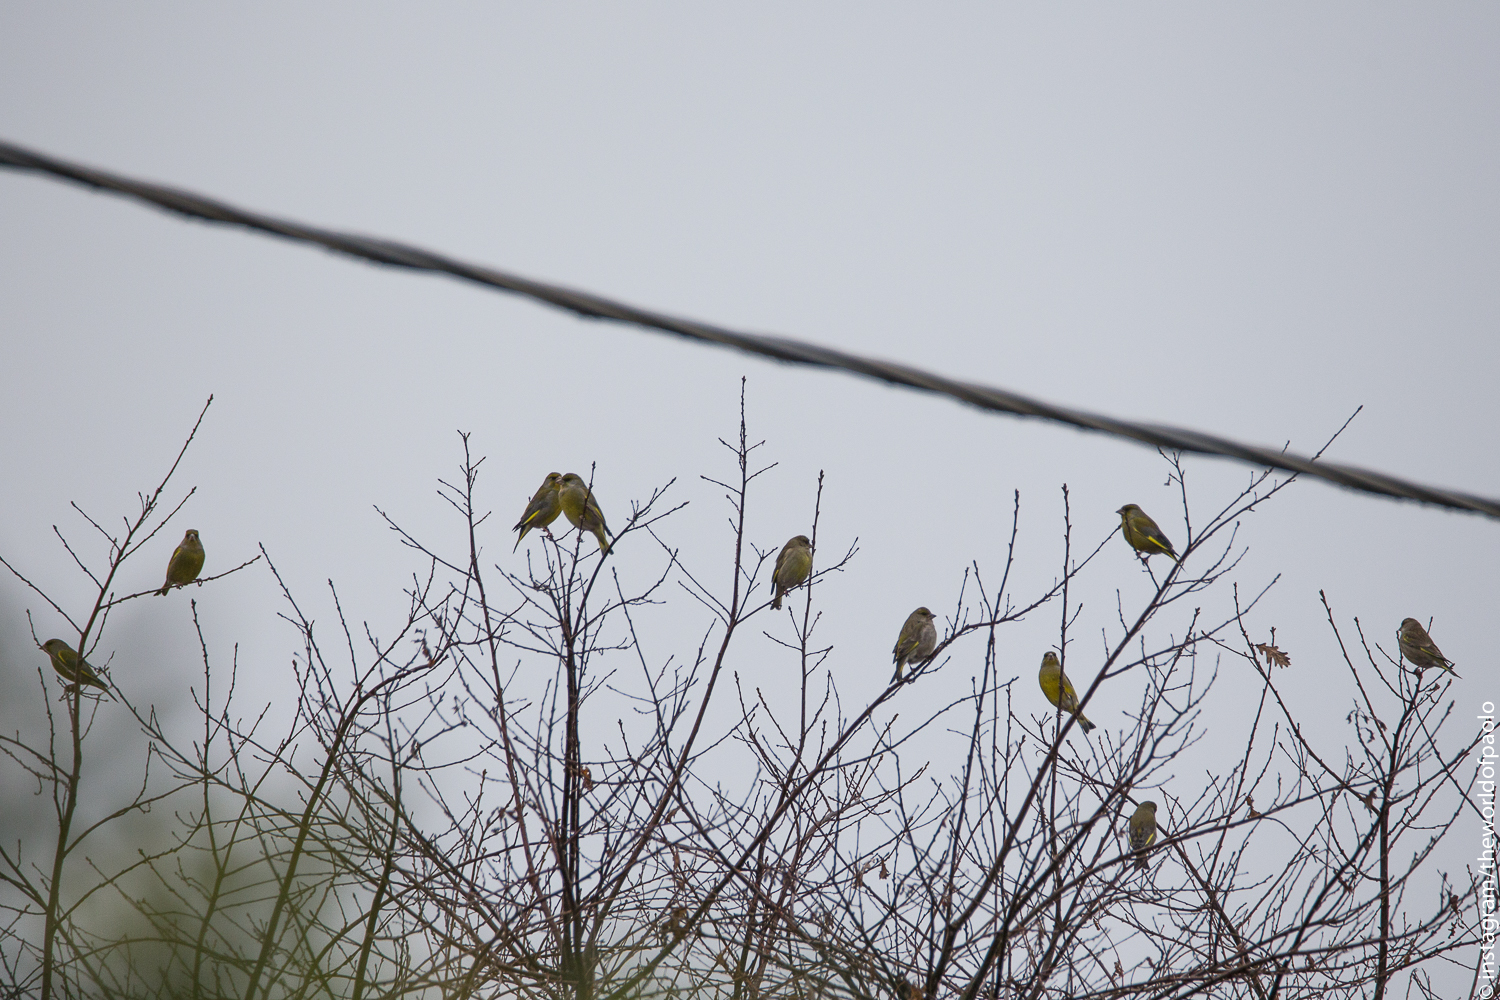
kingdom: Plantae
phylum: Tracheophyta
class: Liliopsida
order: Poales
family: Poaceae
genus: Chloris
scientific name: Chloris chloris
